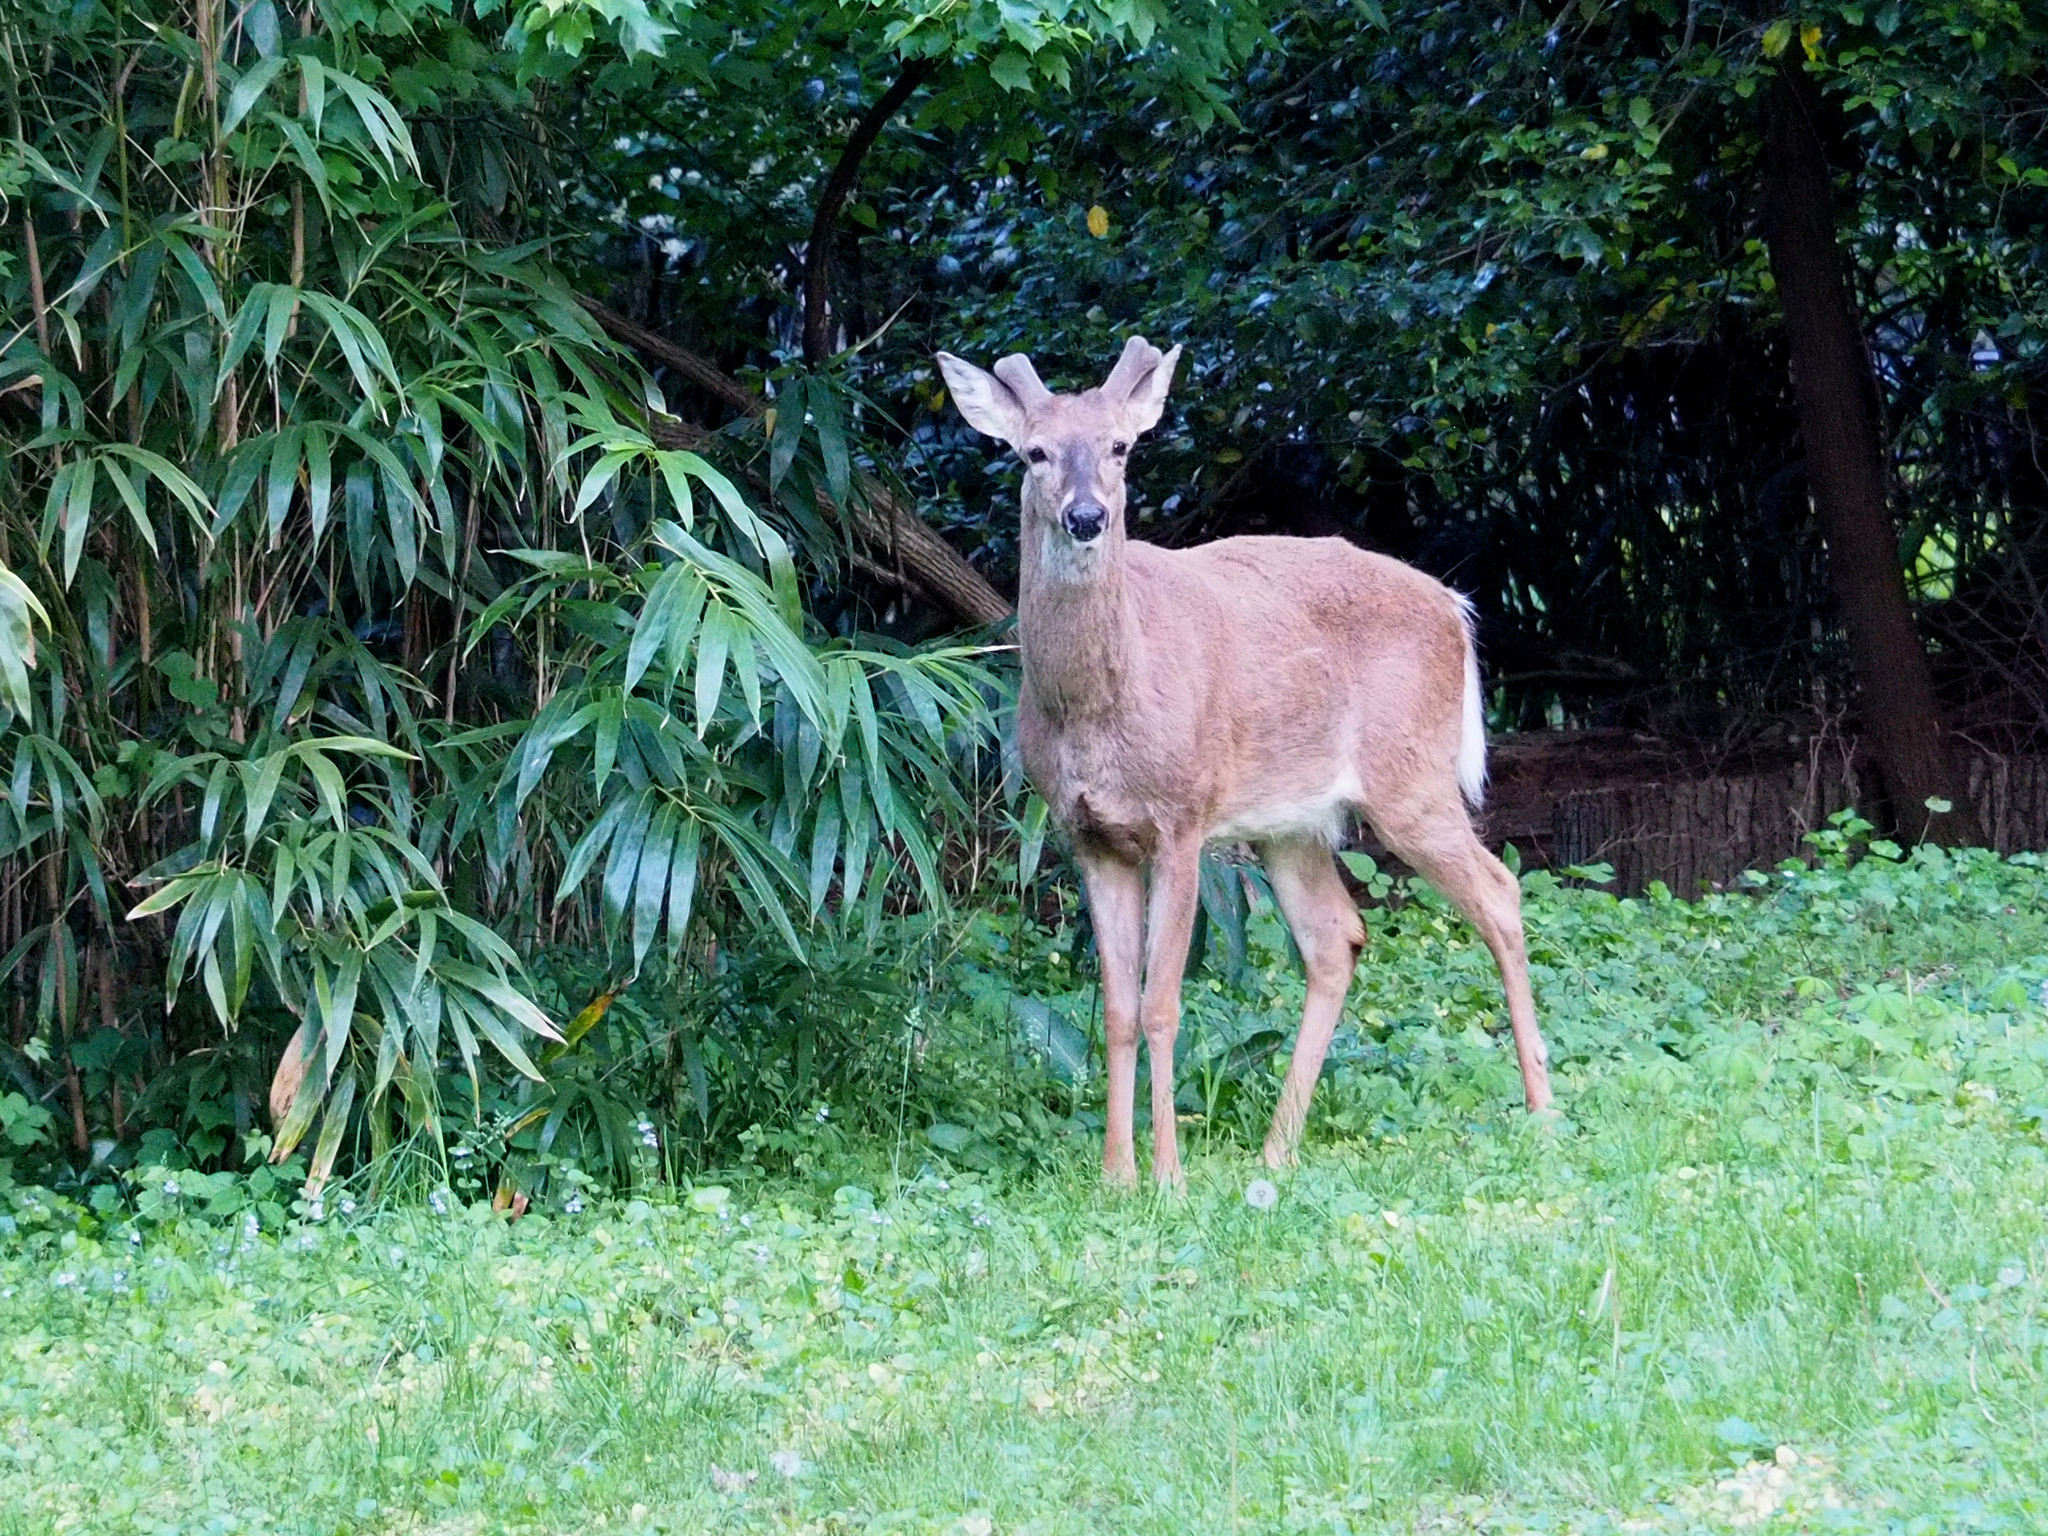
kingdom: Animalia
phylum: Chordata
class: Mammalia
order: Artiodactyla
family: Cervidae
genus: Odocoileus
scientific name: Odocoileus virginianus
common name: White-tailed deer
